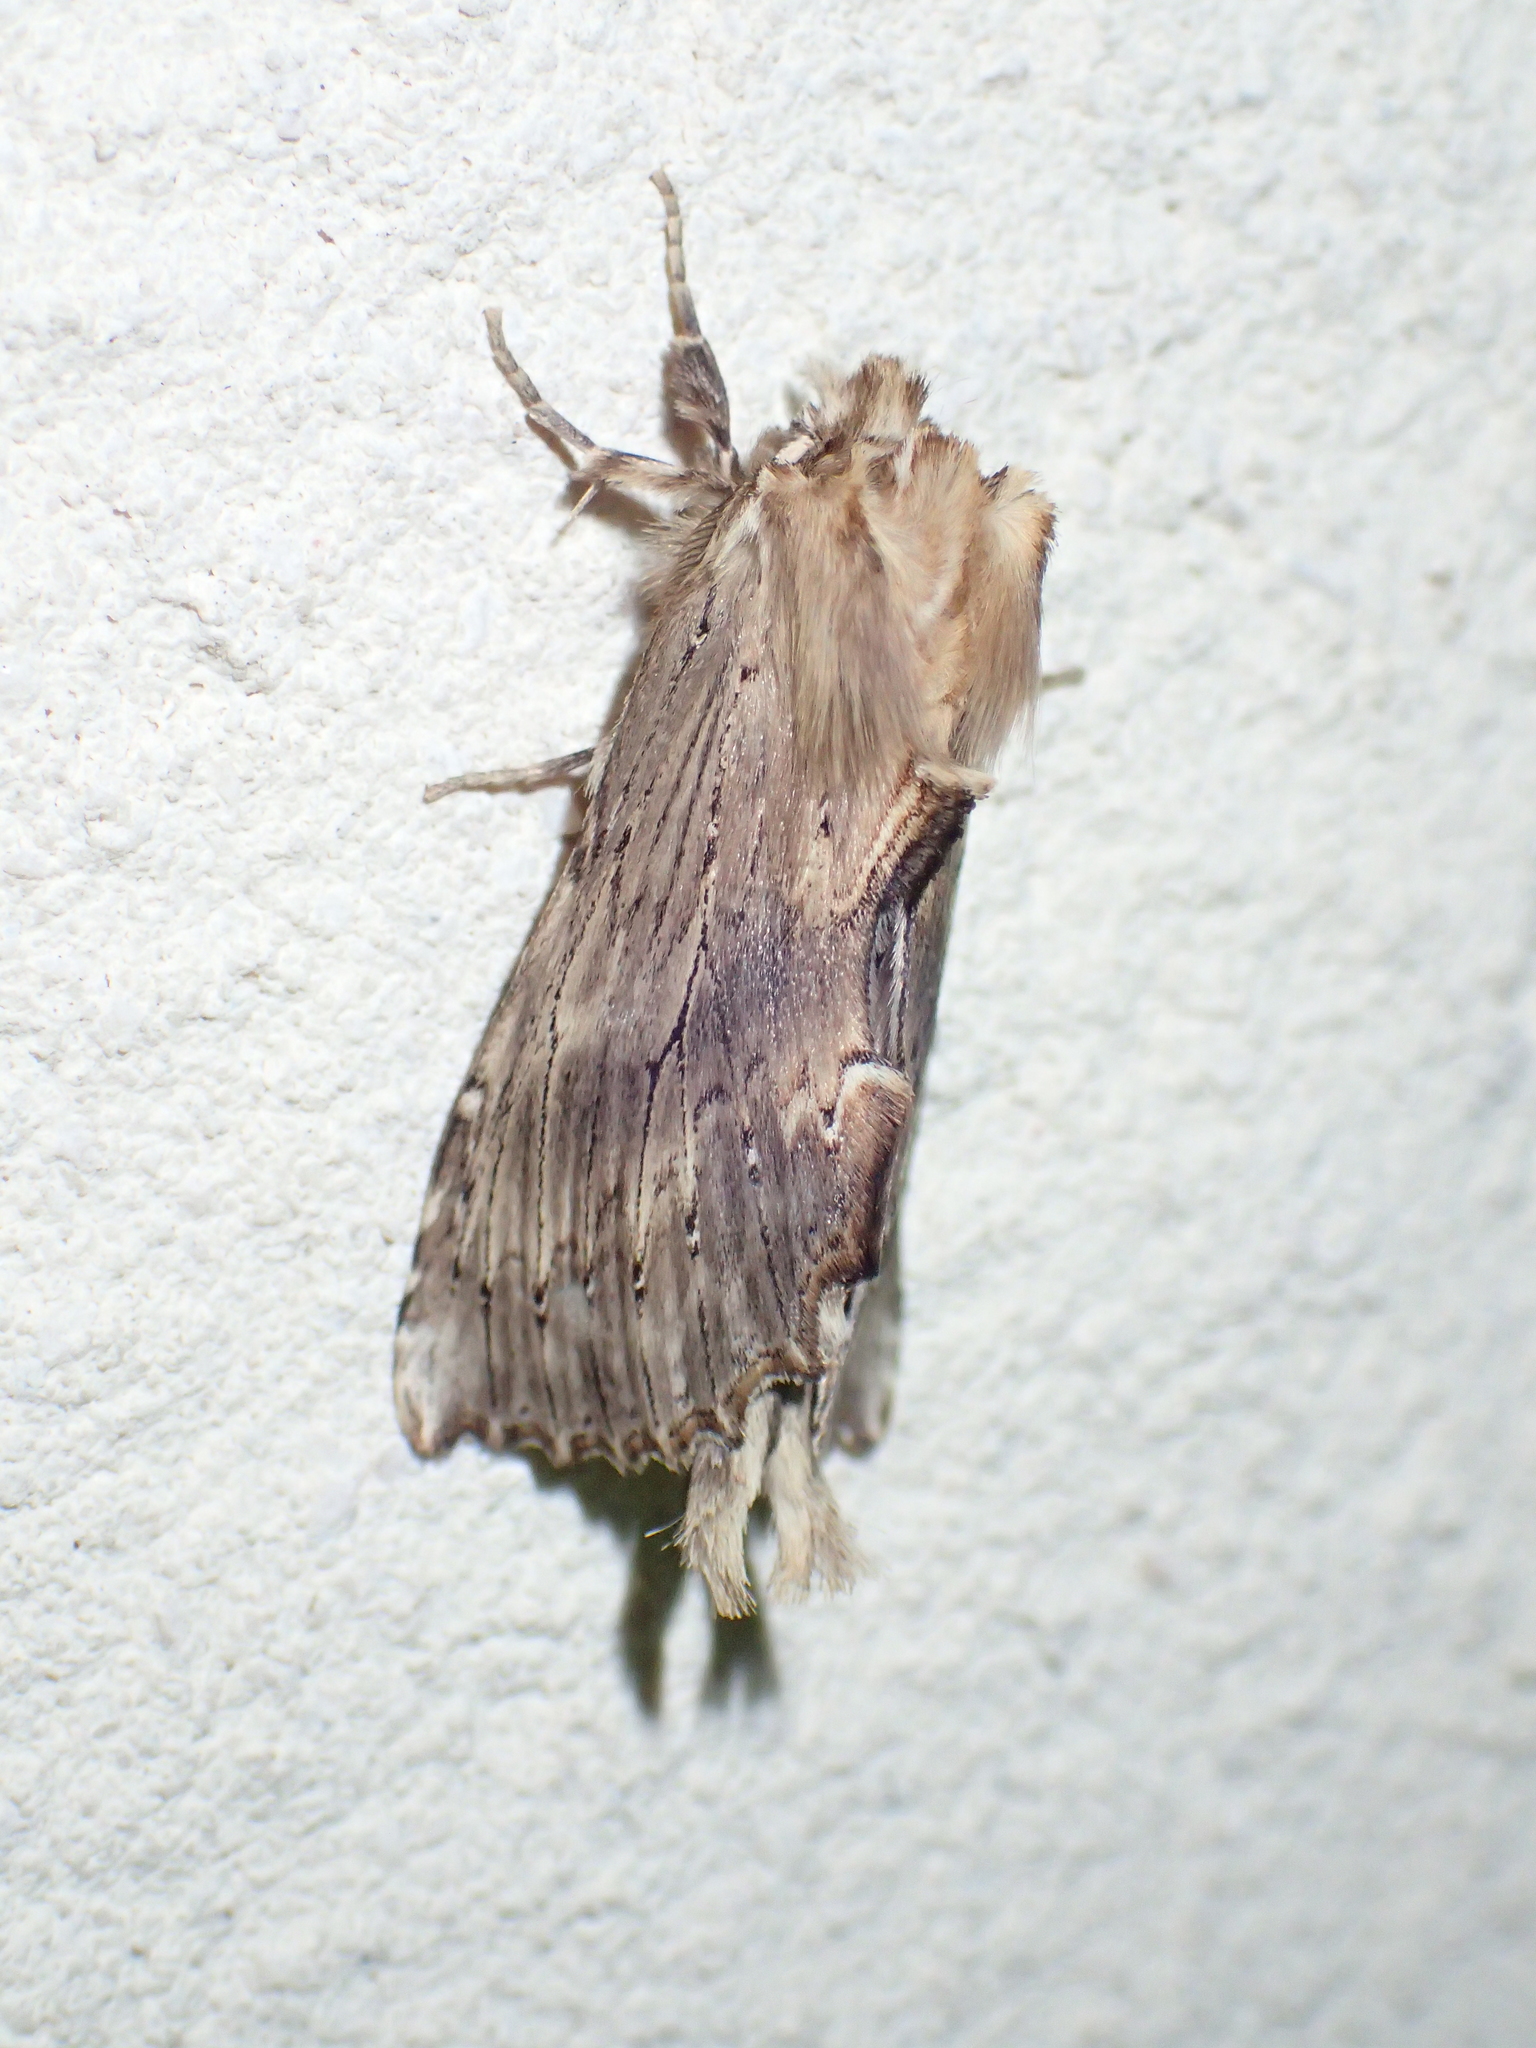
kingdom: Animalia
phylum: Arthropoda
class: Insecta
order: Lepidoptera
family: Notodontidae
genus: Pterostoma
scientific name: Pterostoma palpina
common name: Pale prominent
